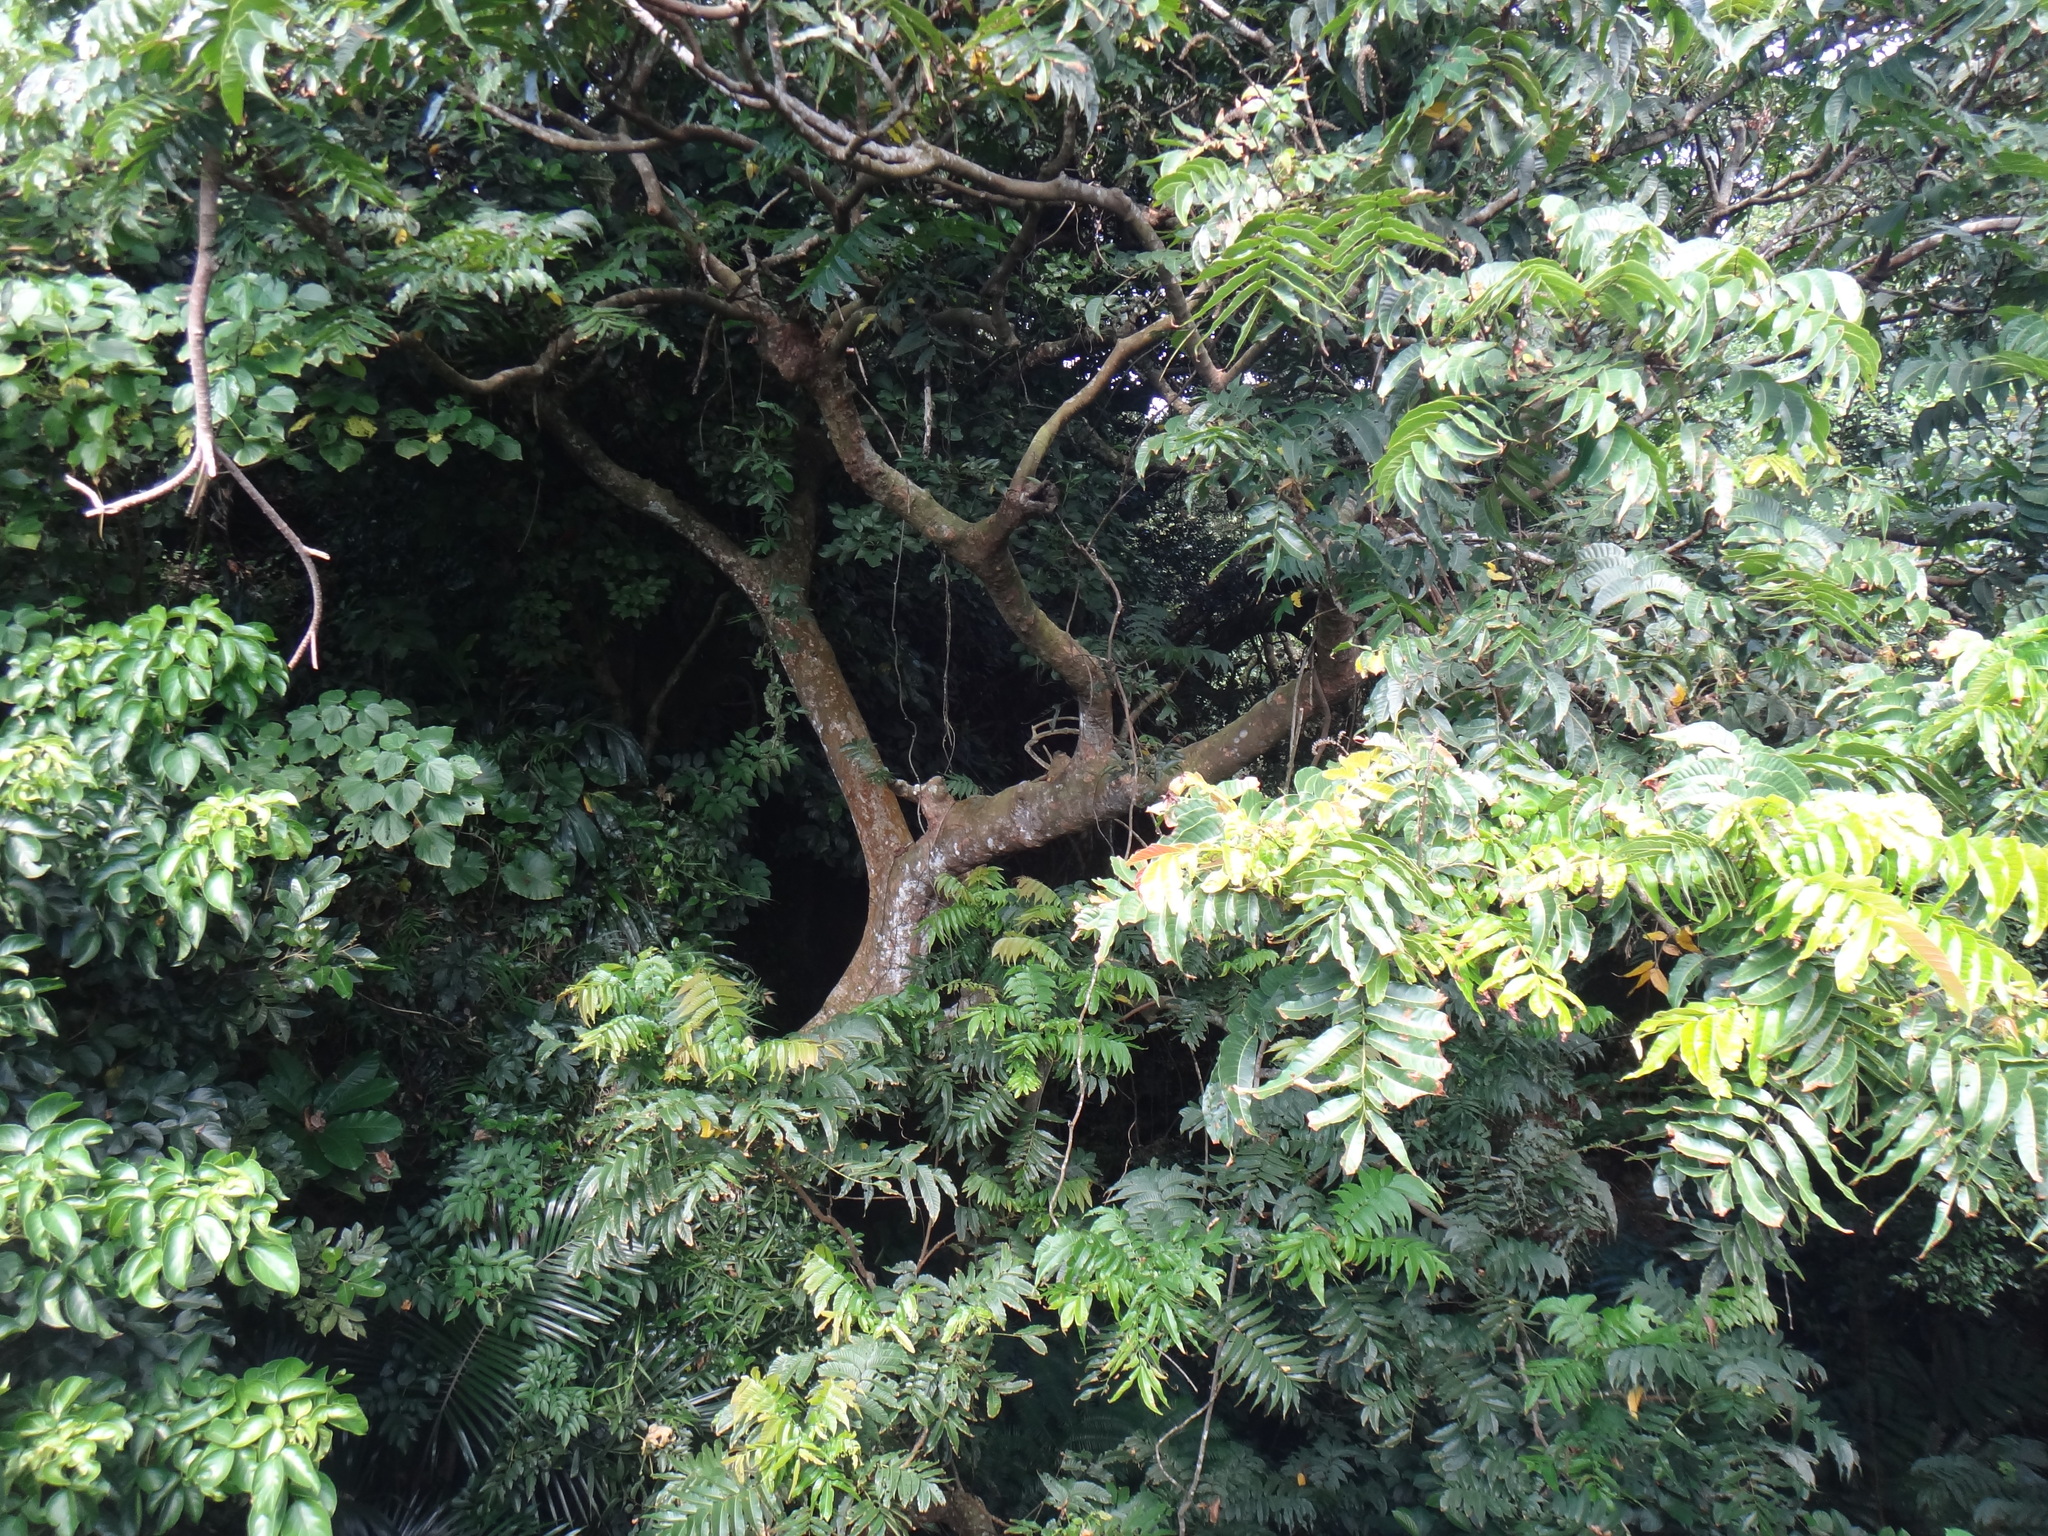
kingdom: Plantae
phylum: Tracheophyta
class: Magnoliopsida
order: Sapindales
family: Sapindaceae
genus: Pometia
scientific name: Pometia pinnata
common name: Oceanic lychee
